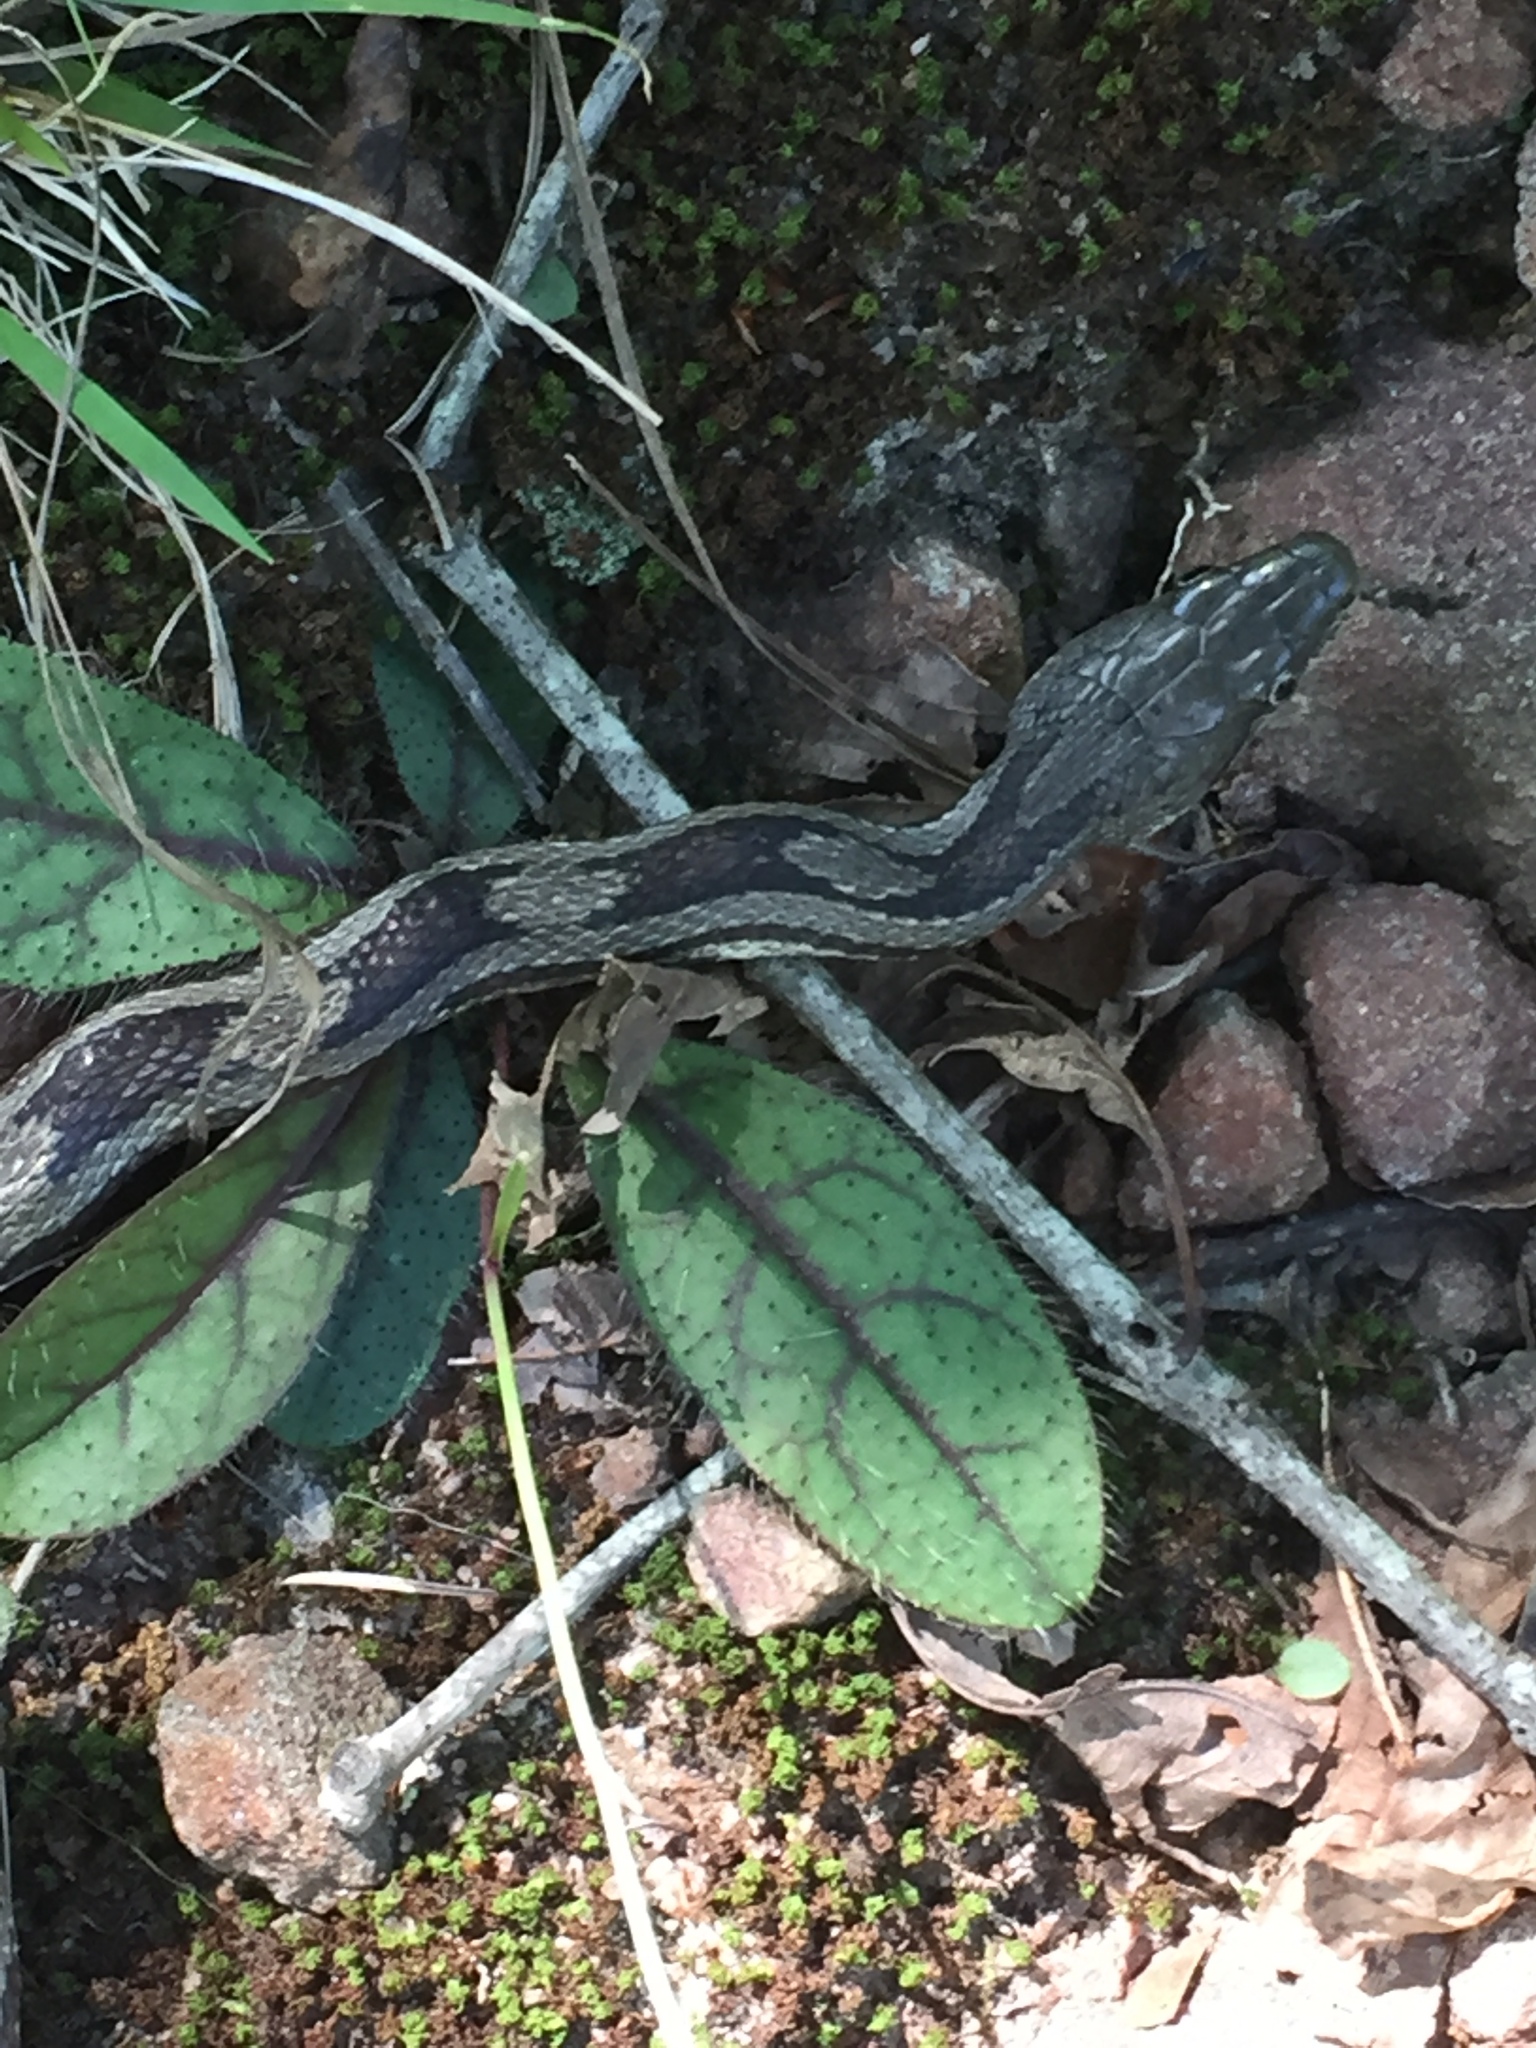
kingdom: Animalia
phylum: Chordata
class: Squamata
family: Colubridae
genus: Pantherophis
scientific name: Pantherophis spiloides
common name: Gray rat snake
